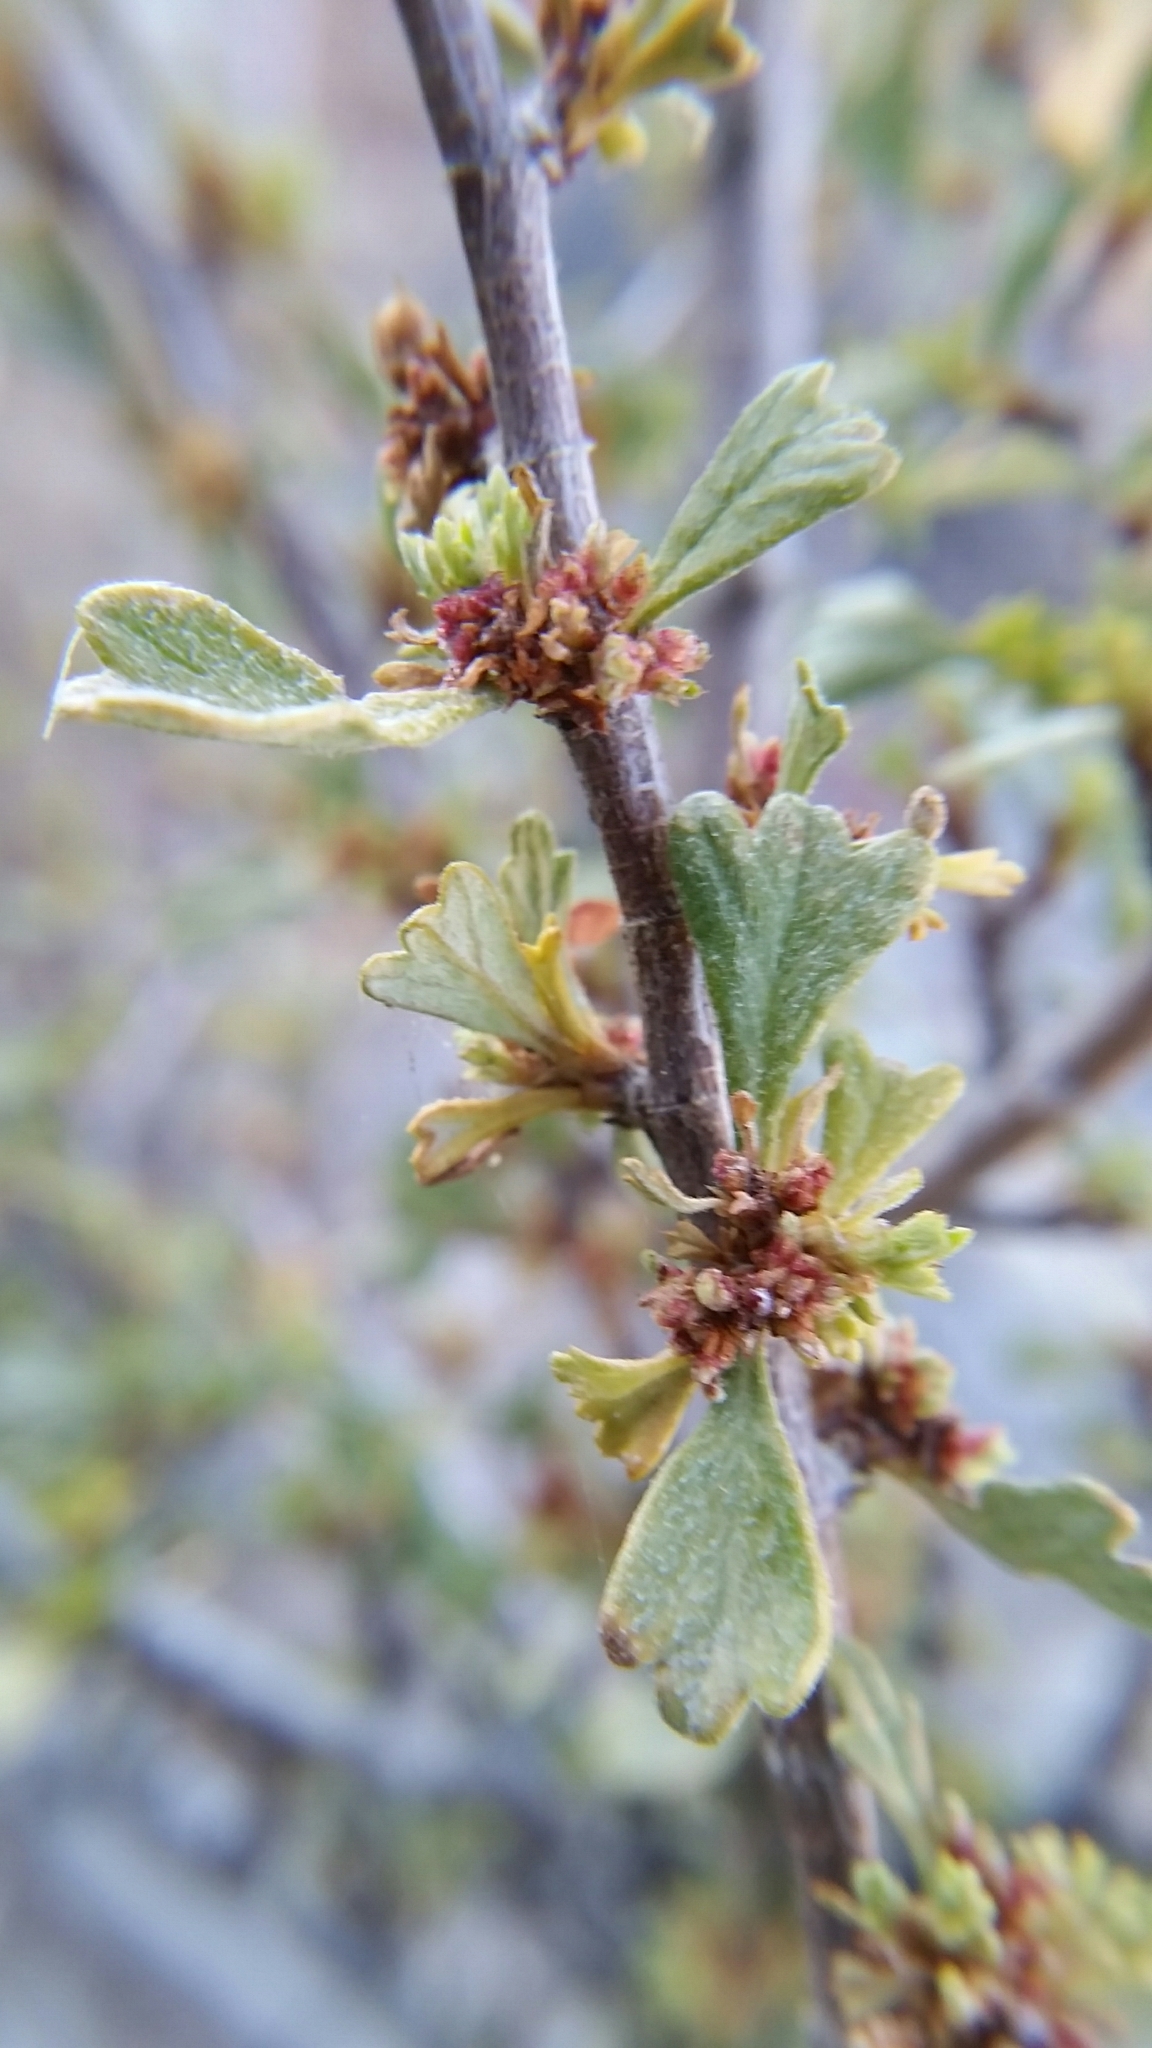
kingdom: Plantae
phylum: Tracheophyta
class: Magnoliopsida
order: Rosales
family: Rosaceae
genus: Purshia
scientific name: Purshia tridentata
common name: Antelope bitterbrush
